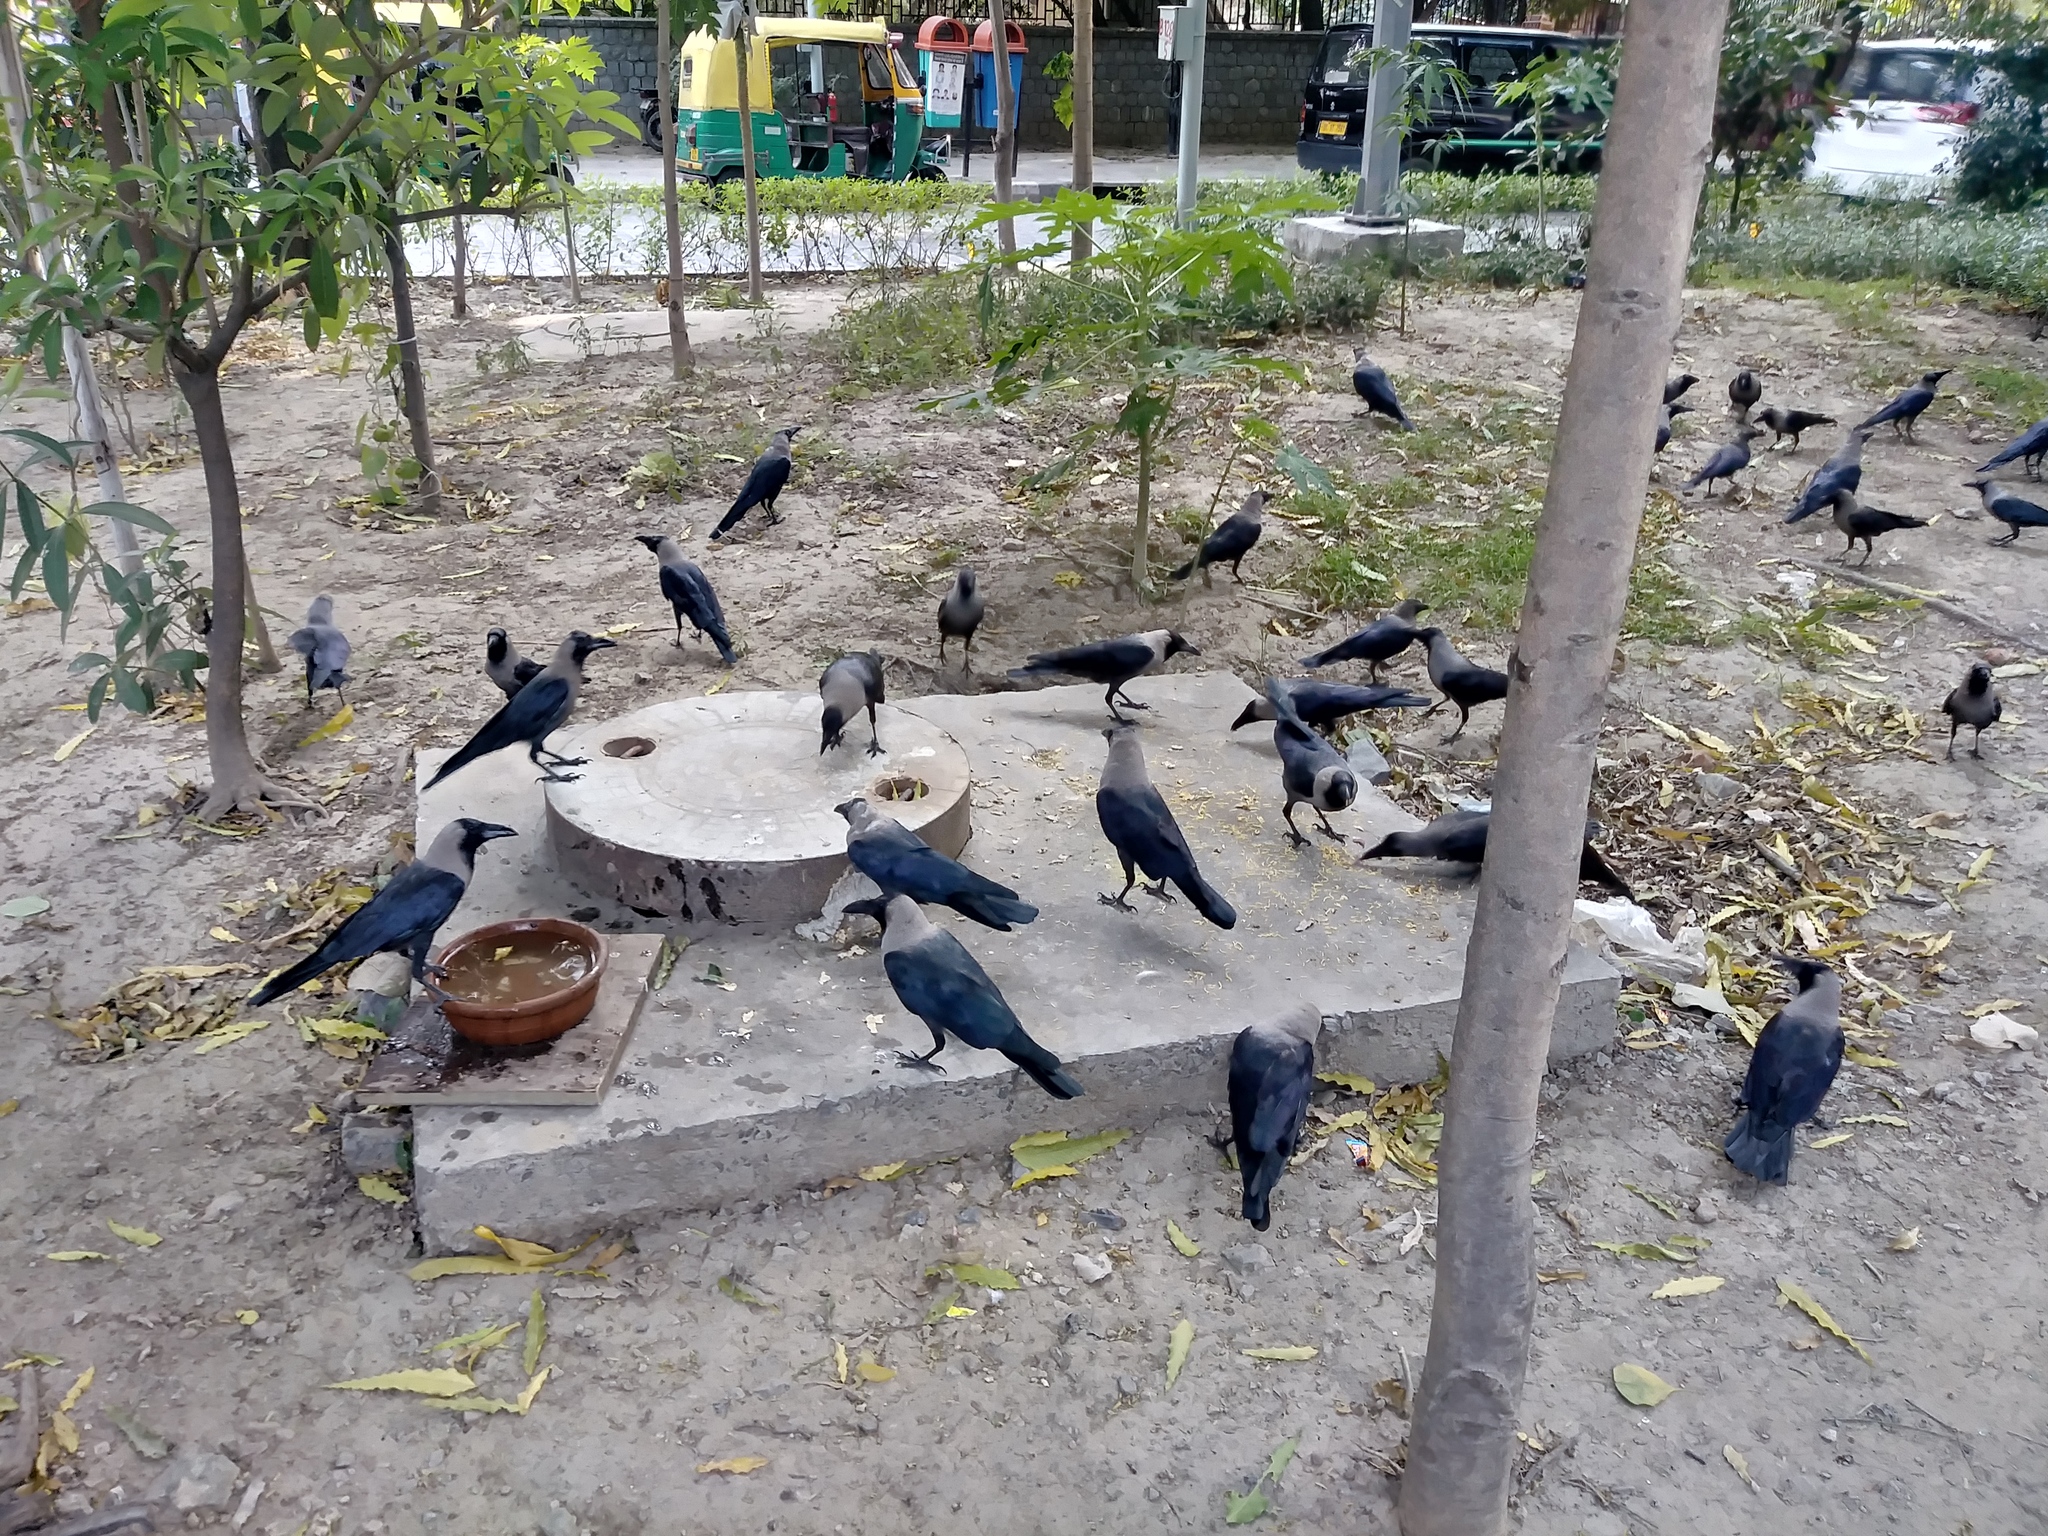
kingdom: Animalia
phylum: Chordata
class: Aves
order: Passeriformes
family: Corvidae
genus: Corvus
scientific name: Corvus splendens
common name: House crow
